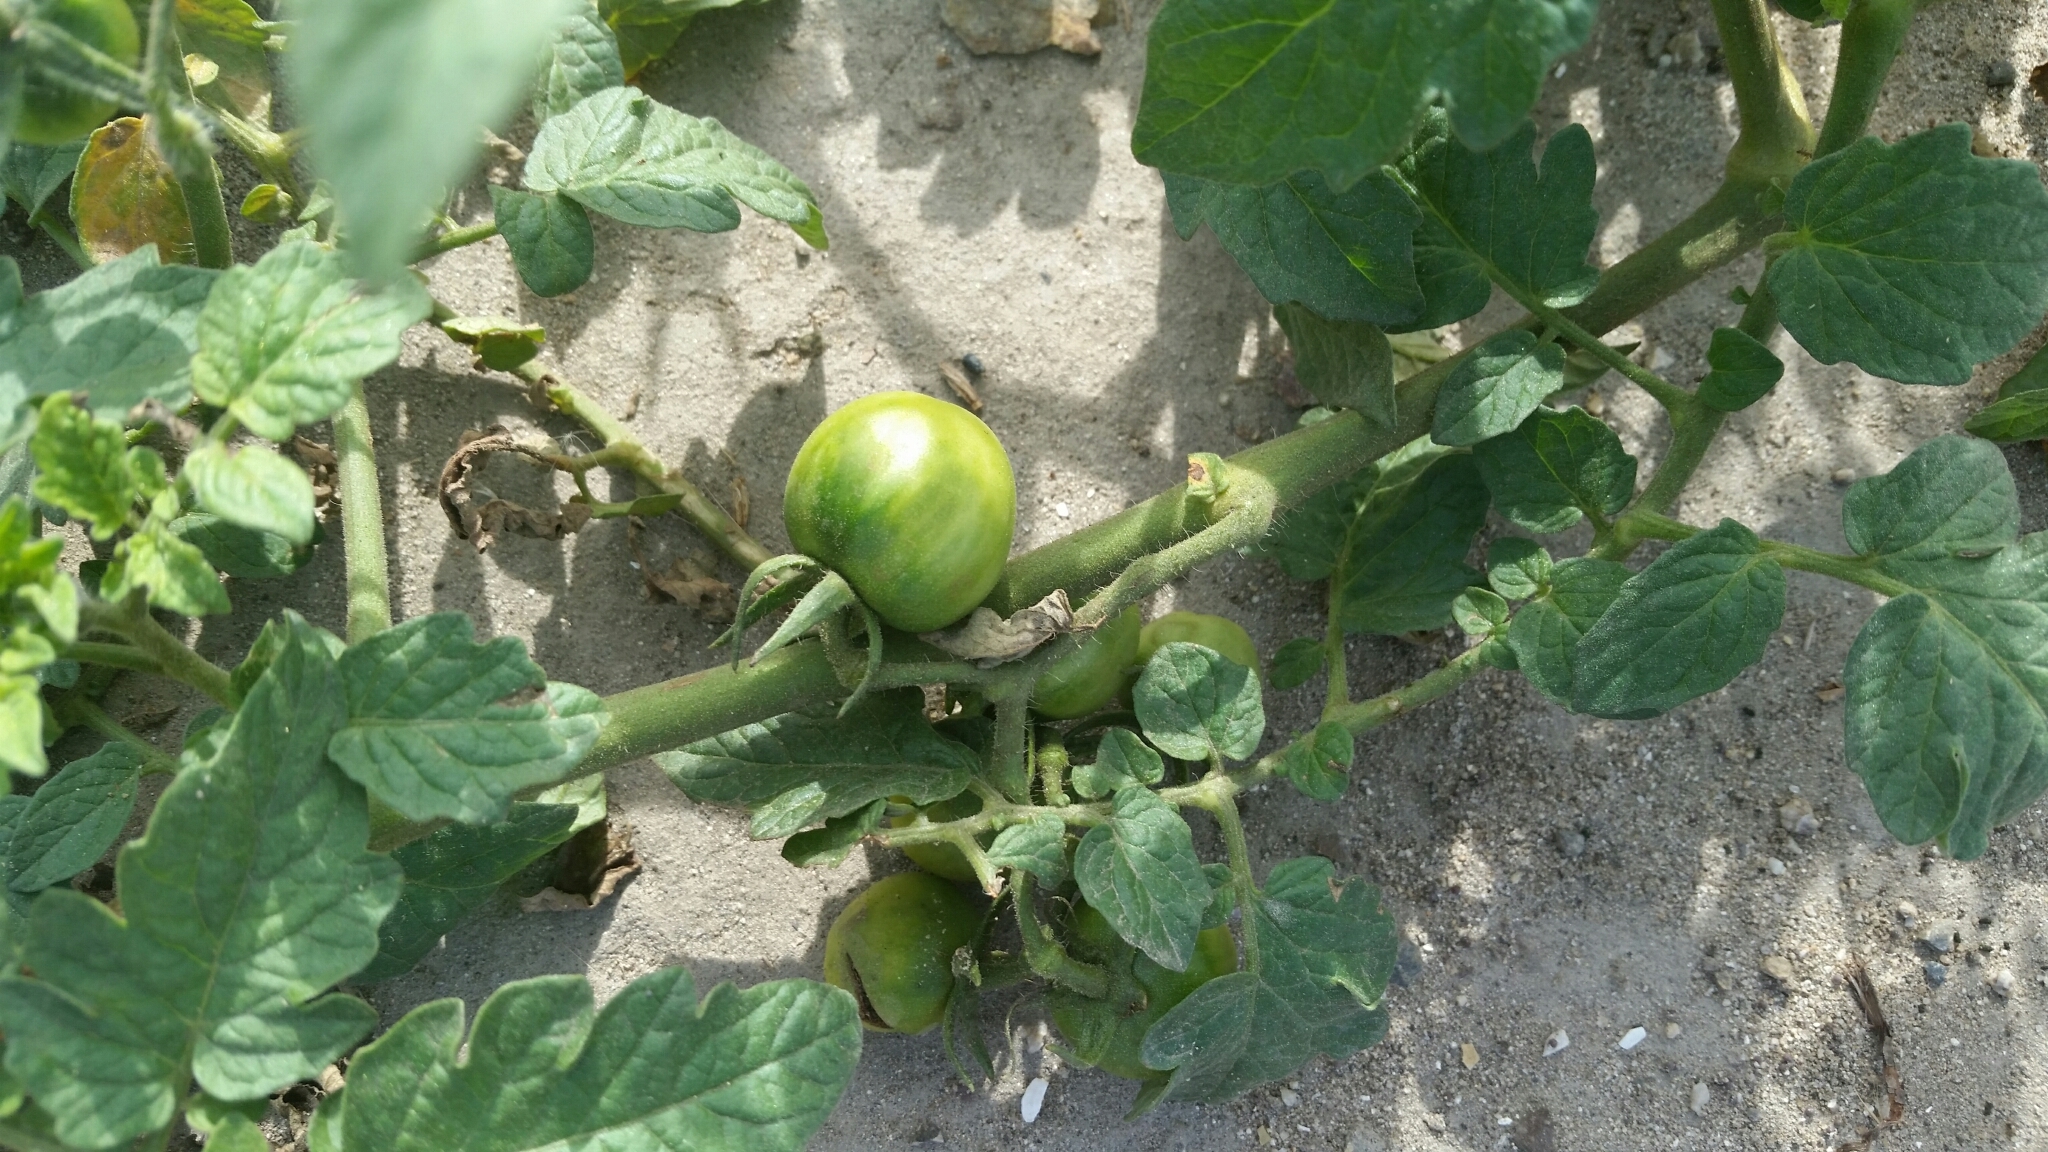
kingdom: Plantae
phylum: Tracheophyta
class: Magnoliopsida
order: Solanales
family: Solanaceae
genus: Solanum
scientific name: Solanum lycopersicum
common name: Garden tomato
